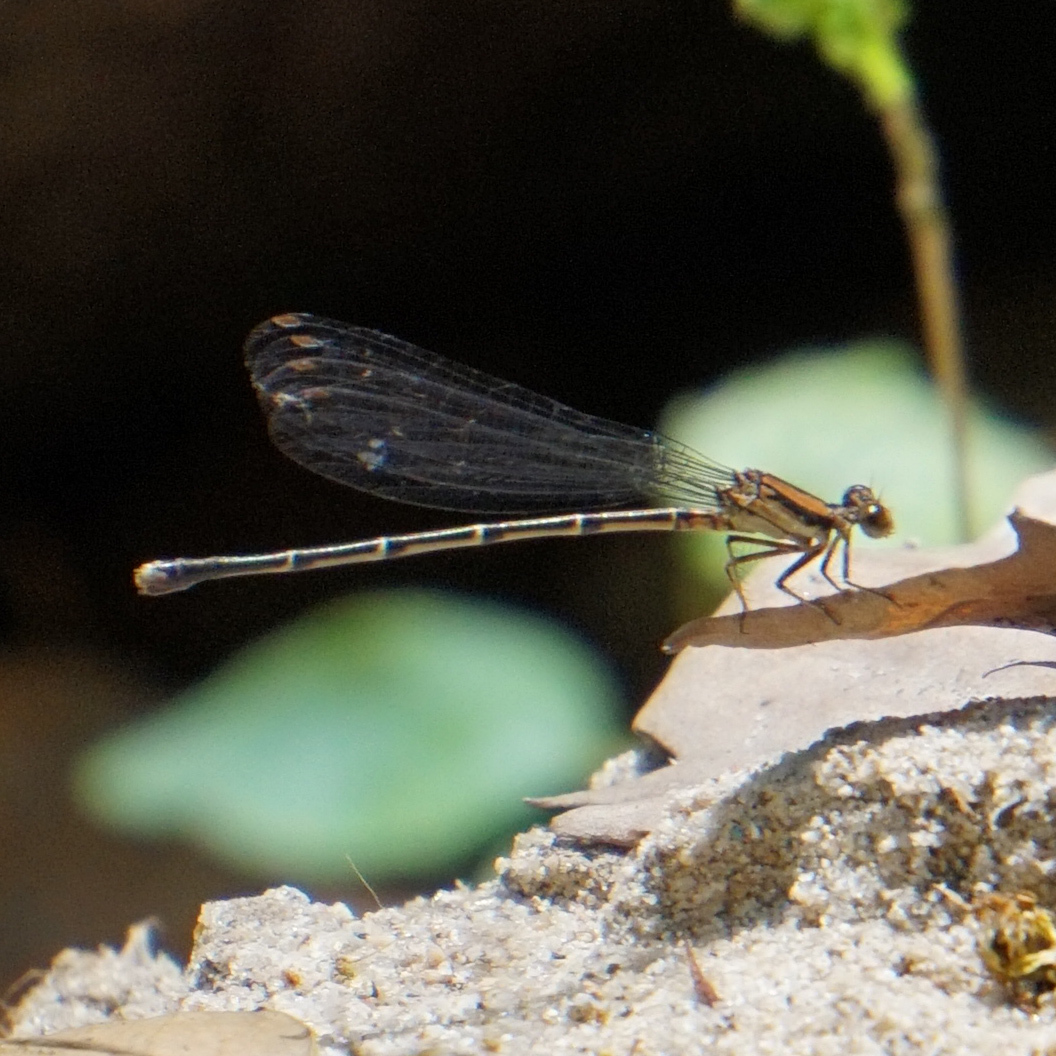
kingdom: Animalia
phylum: Arthropoda
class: Insecta
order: Odonata
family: Coenagrionidae
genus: Argia
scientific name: Argia tibialis
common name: Blue-tipped dancer
